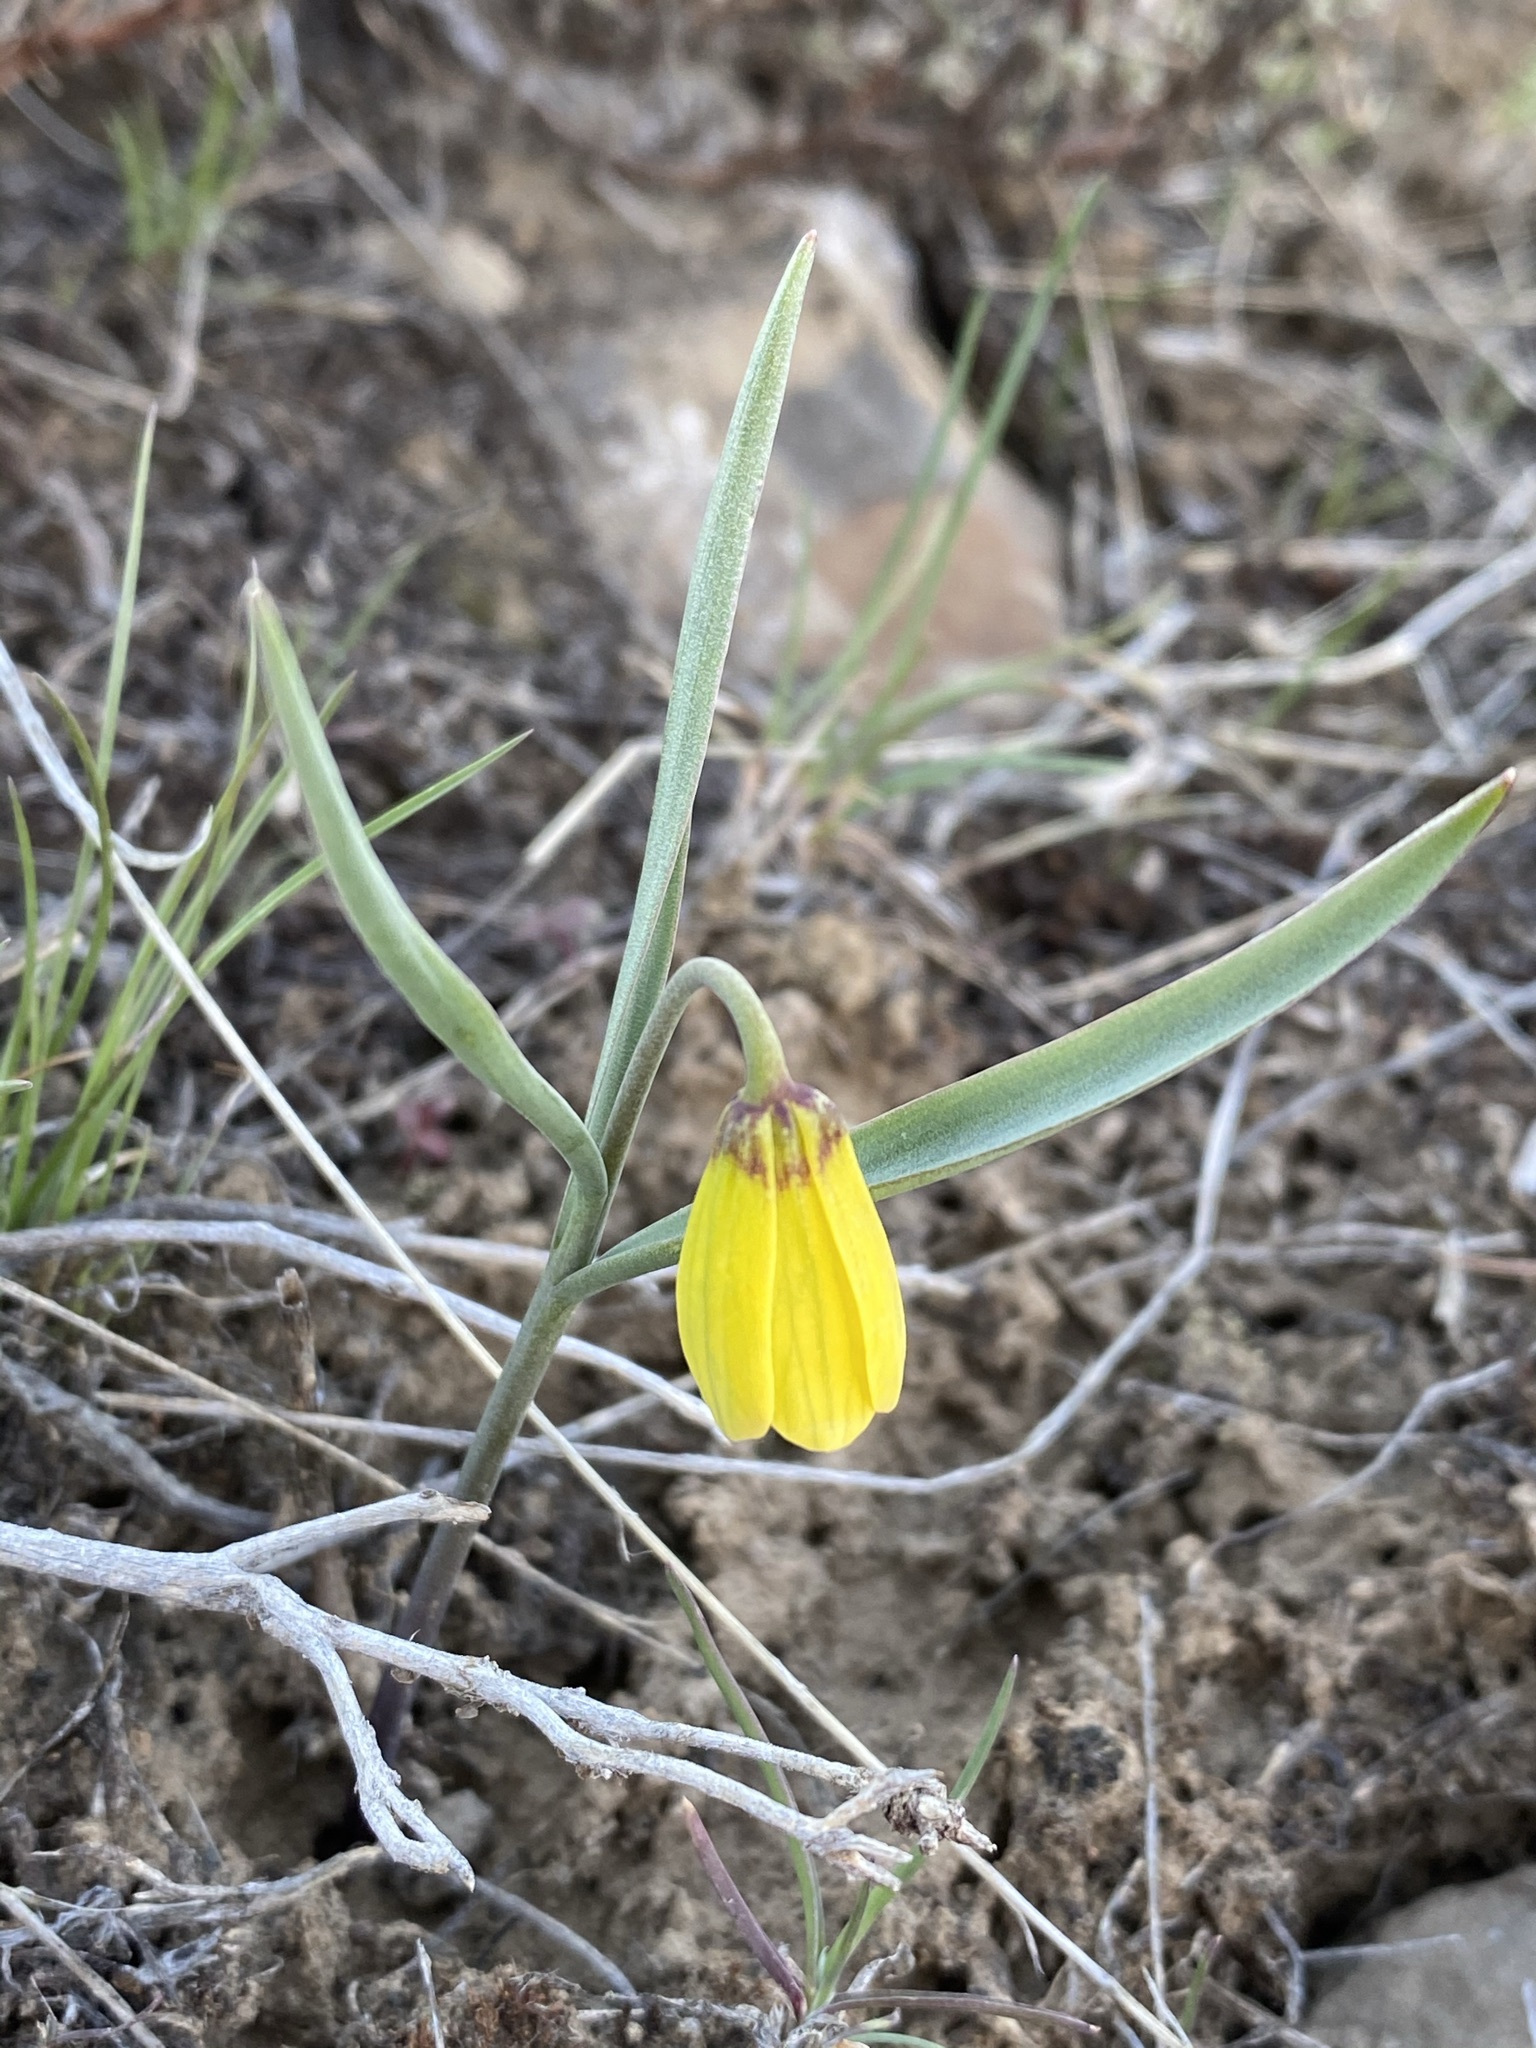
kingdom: Plantae
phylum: Tracheophyta
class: Liliopsida
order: Liliales
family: Liliaceae
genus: Fritillaria
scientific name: Fritillaria pudica
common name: Yellow fritillary
